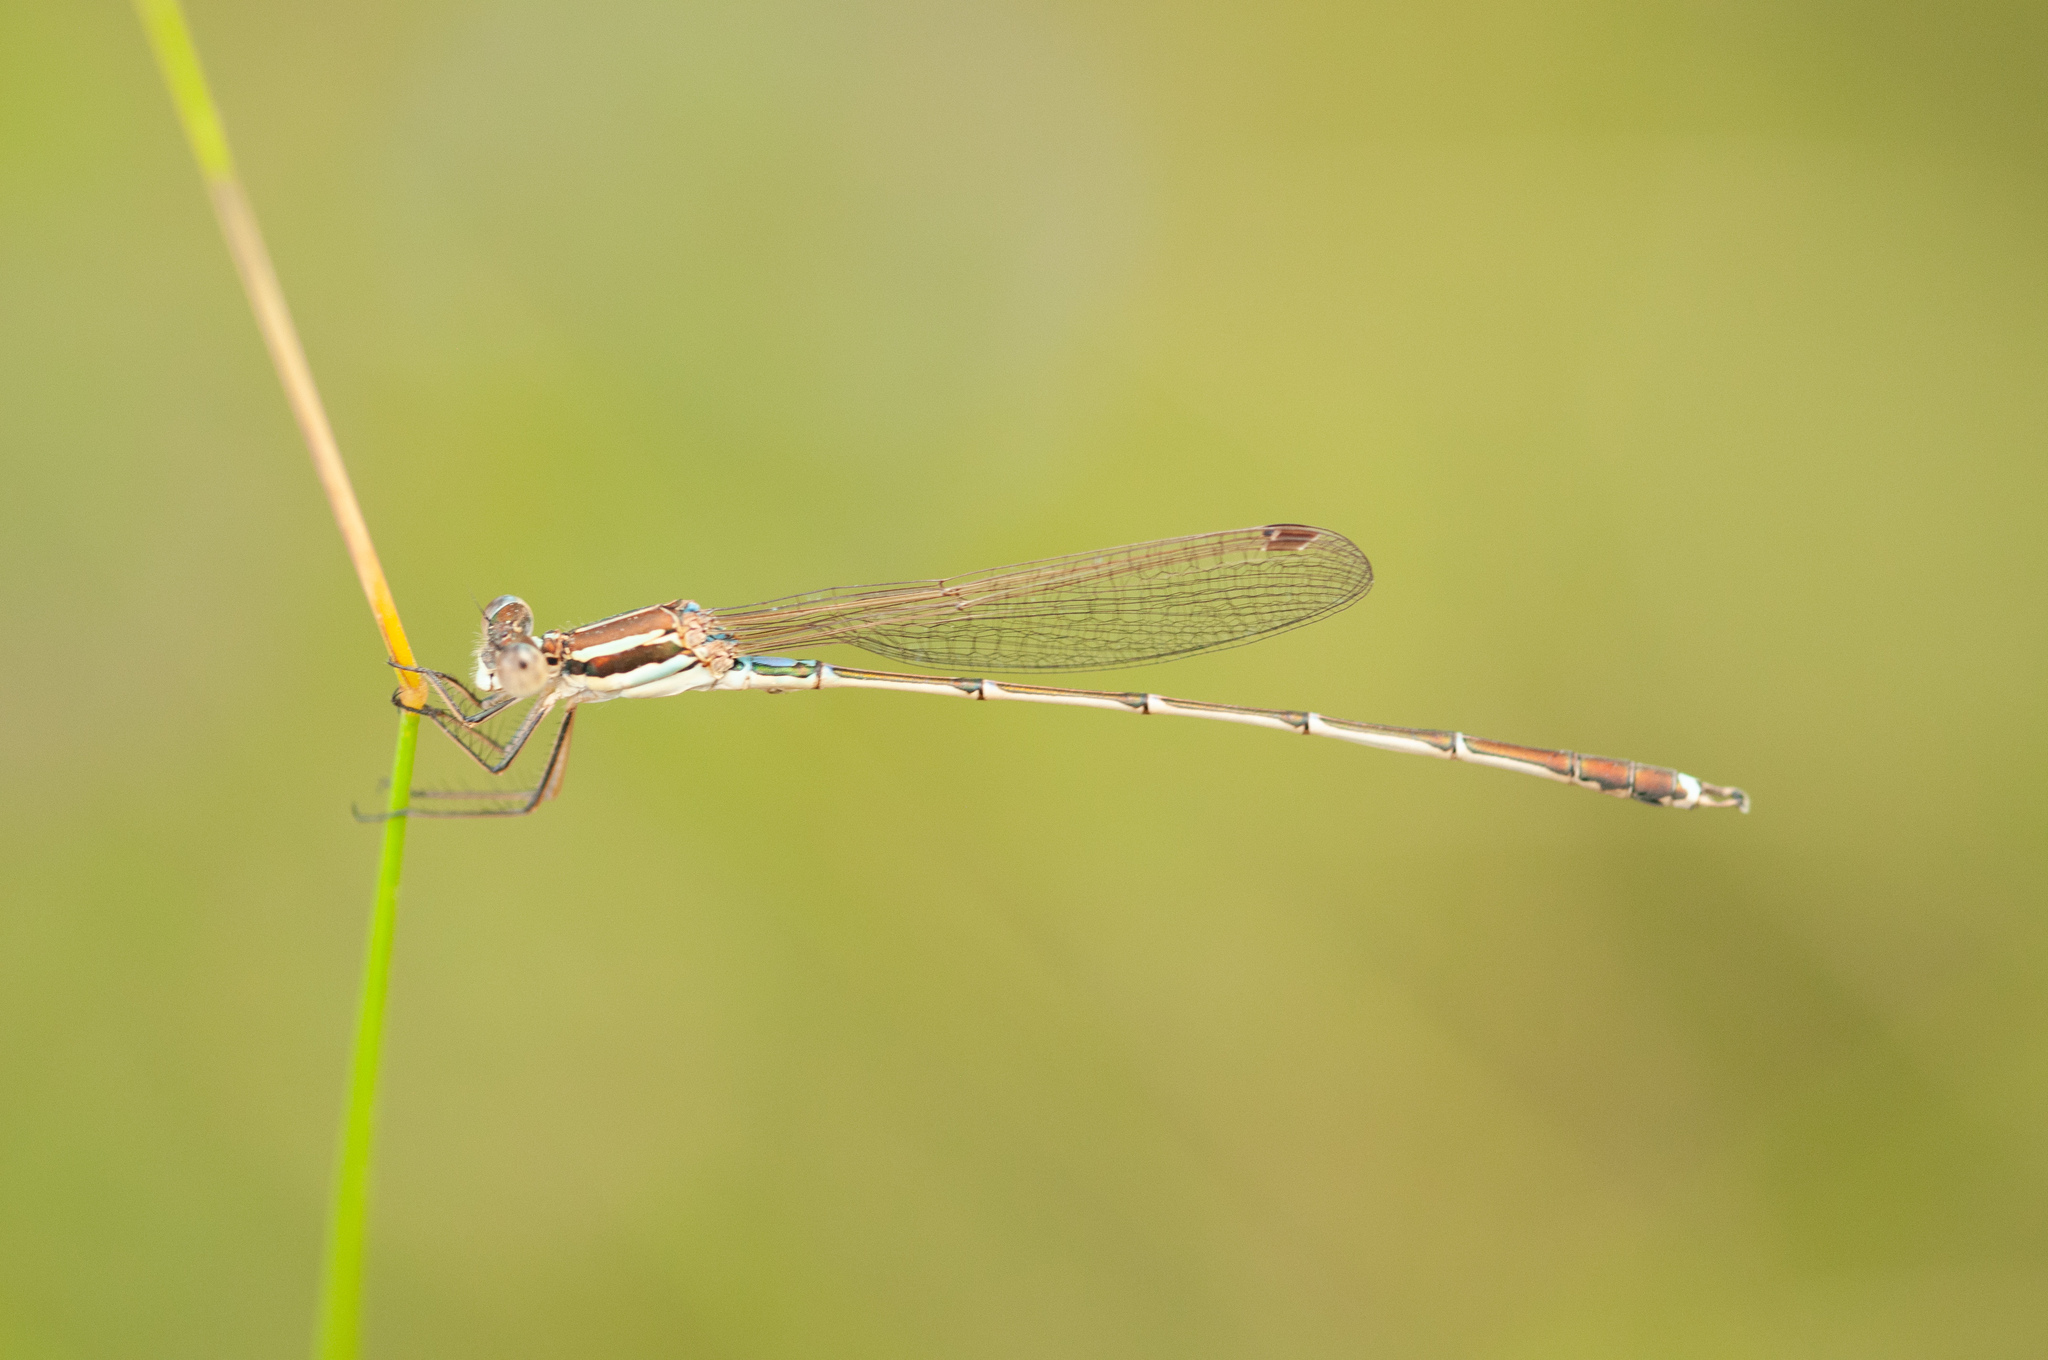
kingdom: Animalia
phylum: Arthropoda
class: Insecta
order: Odonata
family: Lestidae
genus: Austrolestes
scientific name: Austrolestes analis
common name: Slender ringtail
